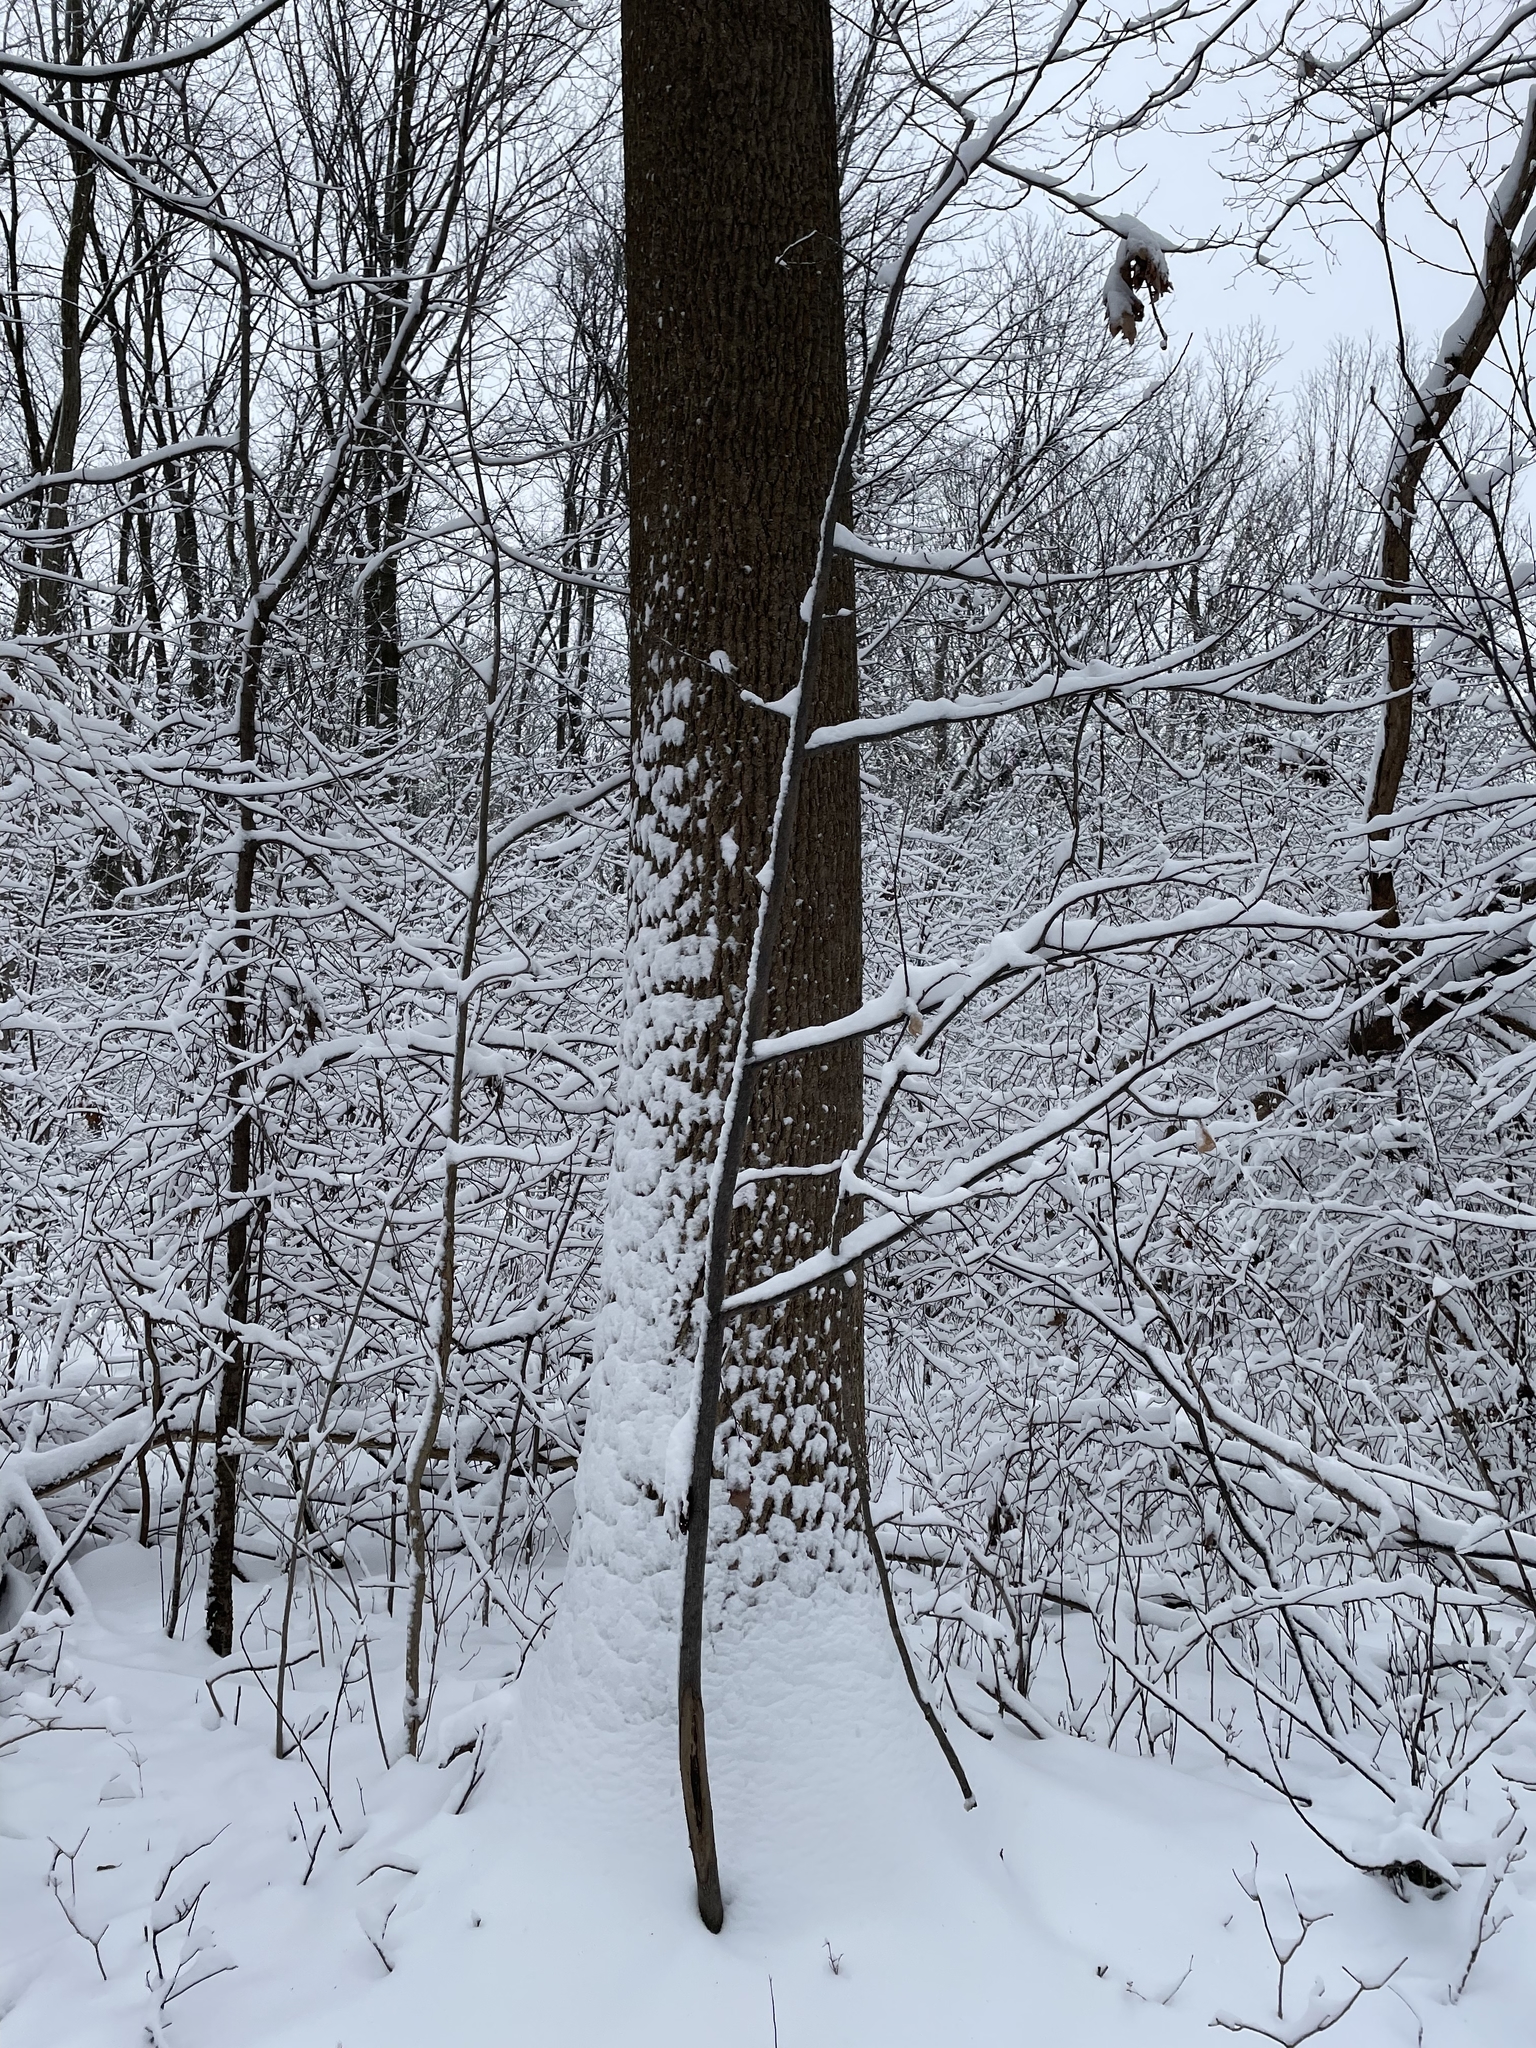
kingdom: Plantae
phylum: Tracheophyta
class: Magnoliopsida
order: Magnoliales
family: Magnoliaceae
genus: Liriodendron
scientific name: Liriodendron tulipifera
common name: Tulip tree
